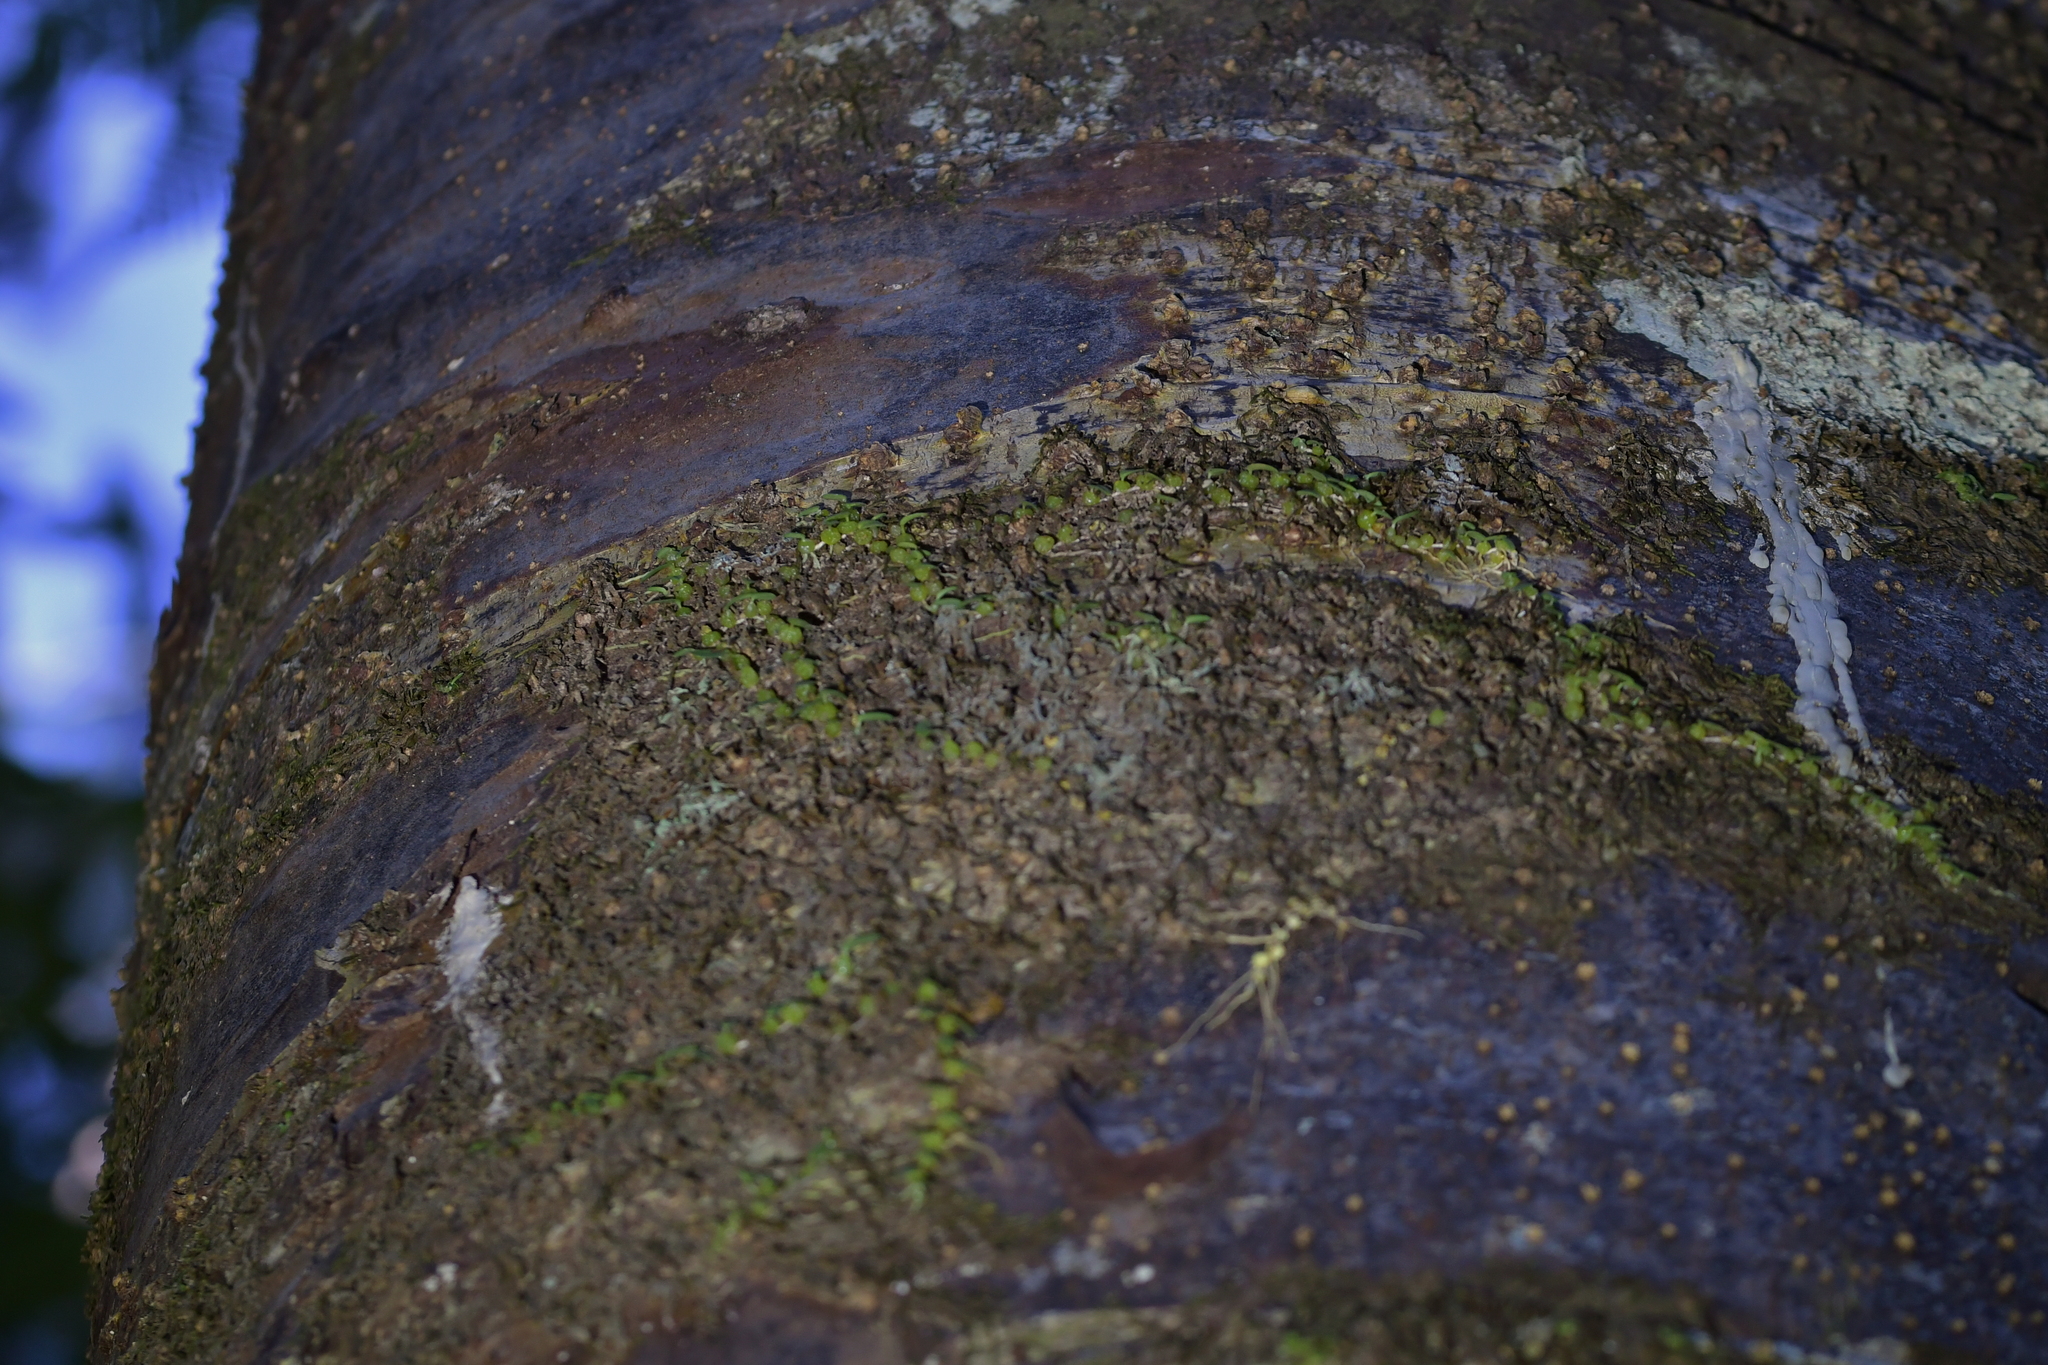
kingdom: Plantae
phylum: Tracheophyta
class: Liliopsida
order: Asparagales
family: Orchidaceae
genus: Bulbophyllum
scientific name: Bulbophyllum pygmaeum
